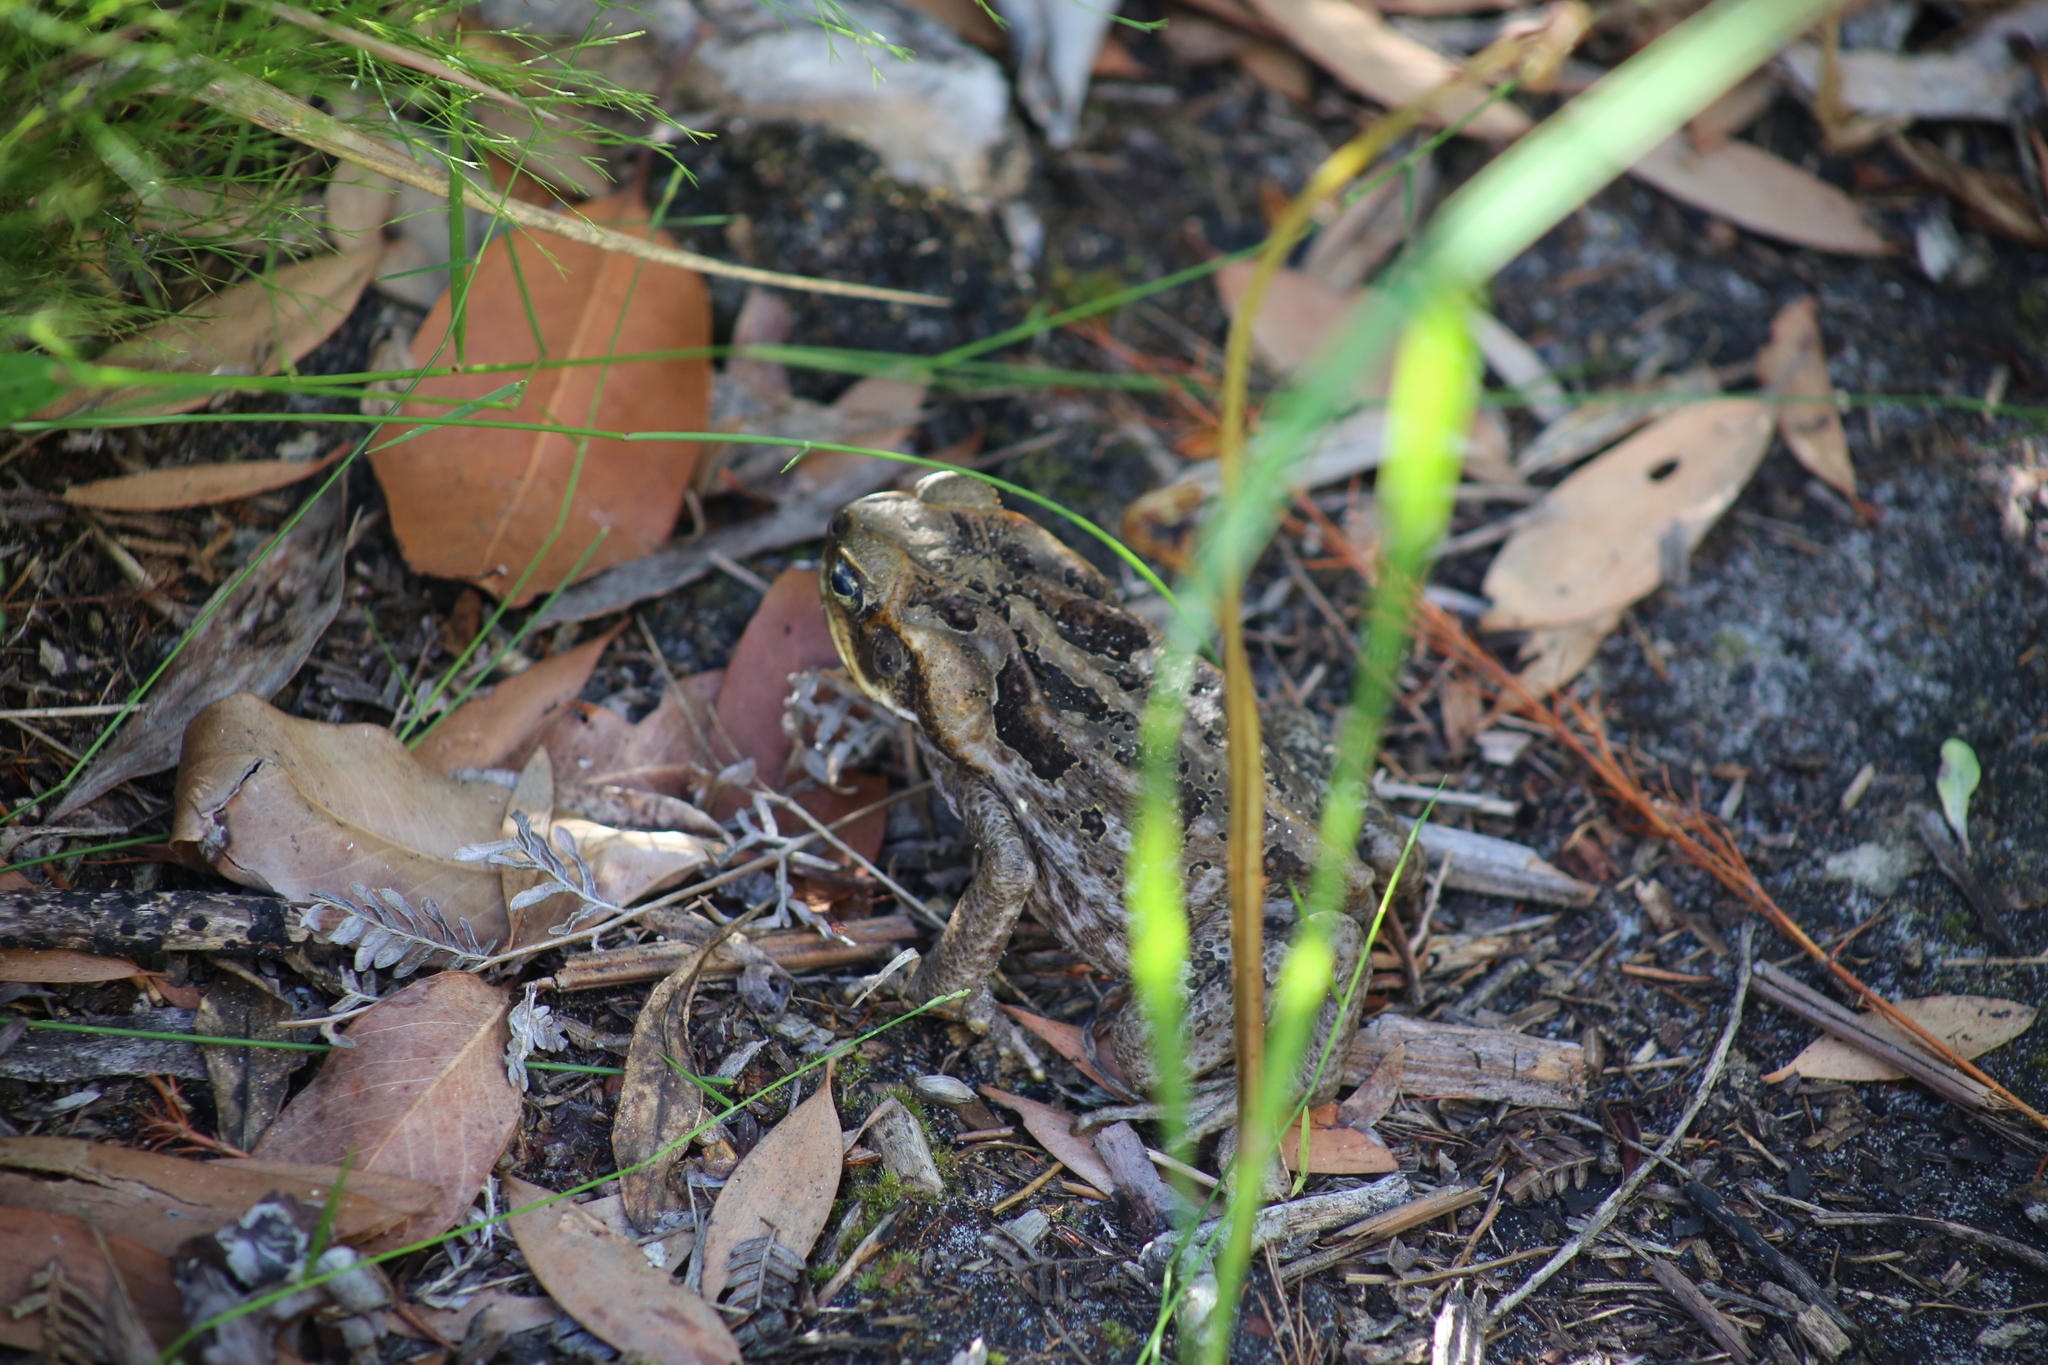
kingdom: Animalia
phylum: Chordata
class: Amphibia
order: Anura
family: Bufonidae
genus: Rhinella
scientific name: Rhinella marina
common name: Cane toad
